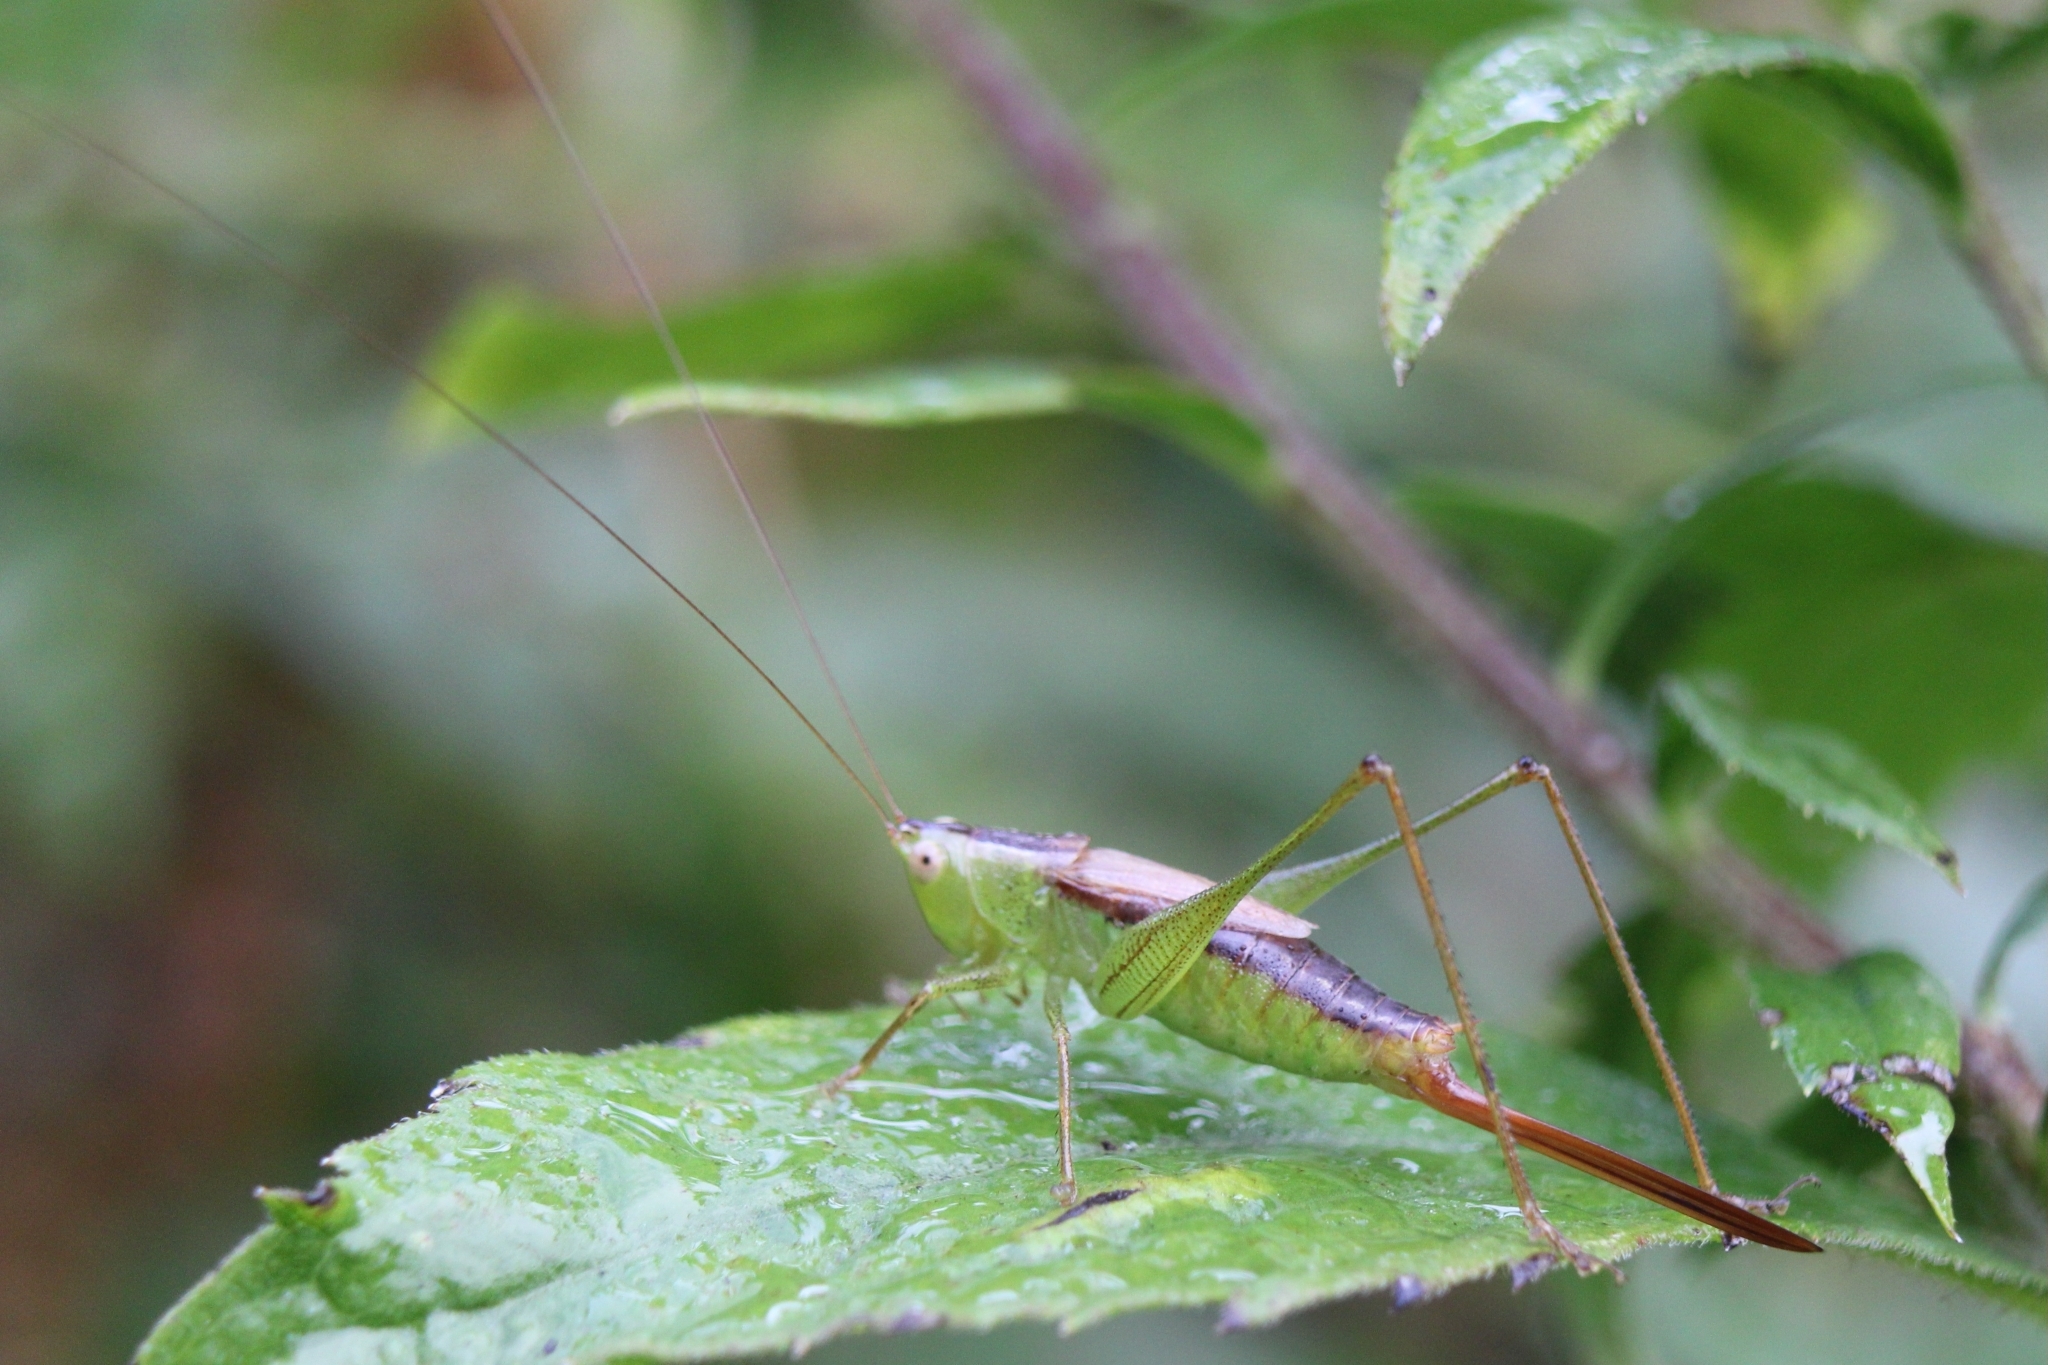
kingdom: Animalia
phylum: Arthropoda
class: Insecta
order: Orthoptera
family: Tettigoniidae
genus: Conocephalus
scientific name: Conocephalus brevipennis
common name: Short-winged meadow katydid
